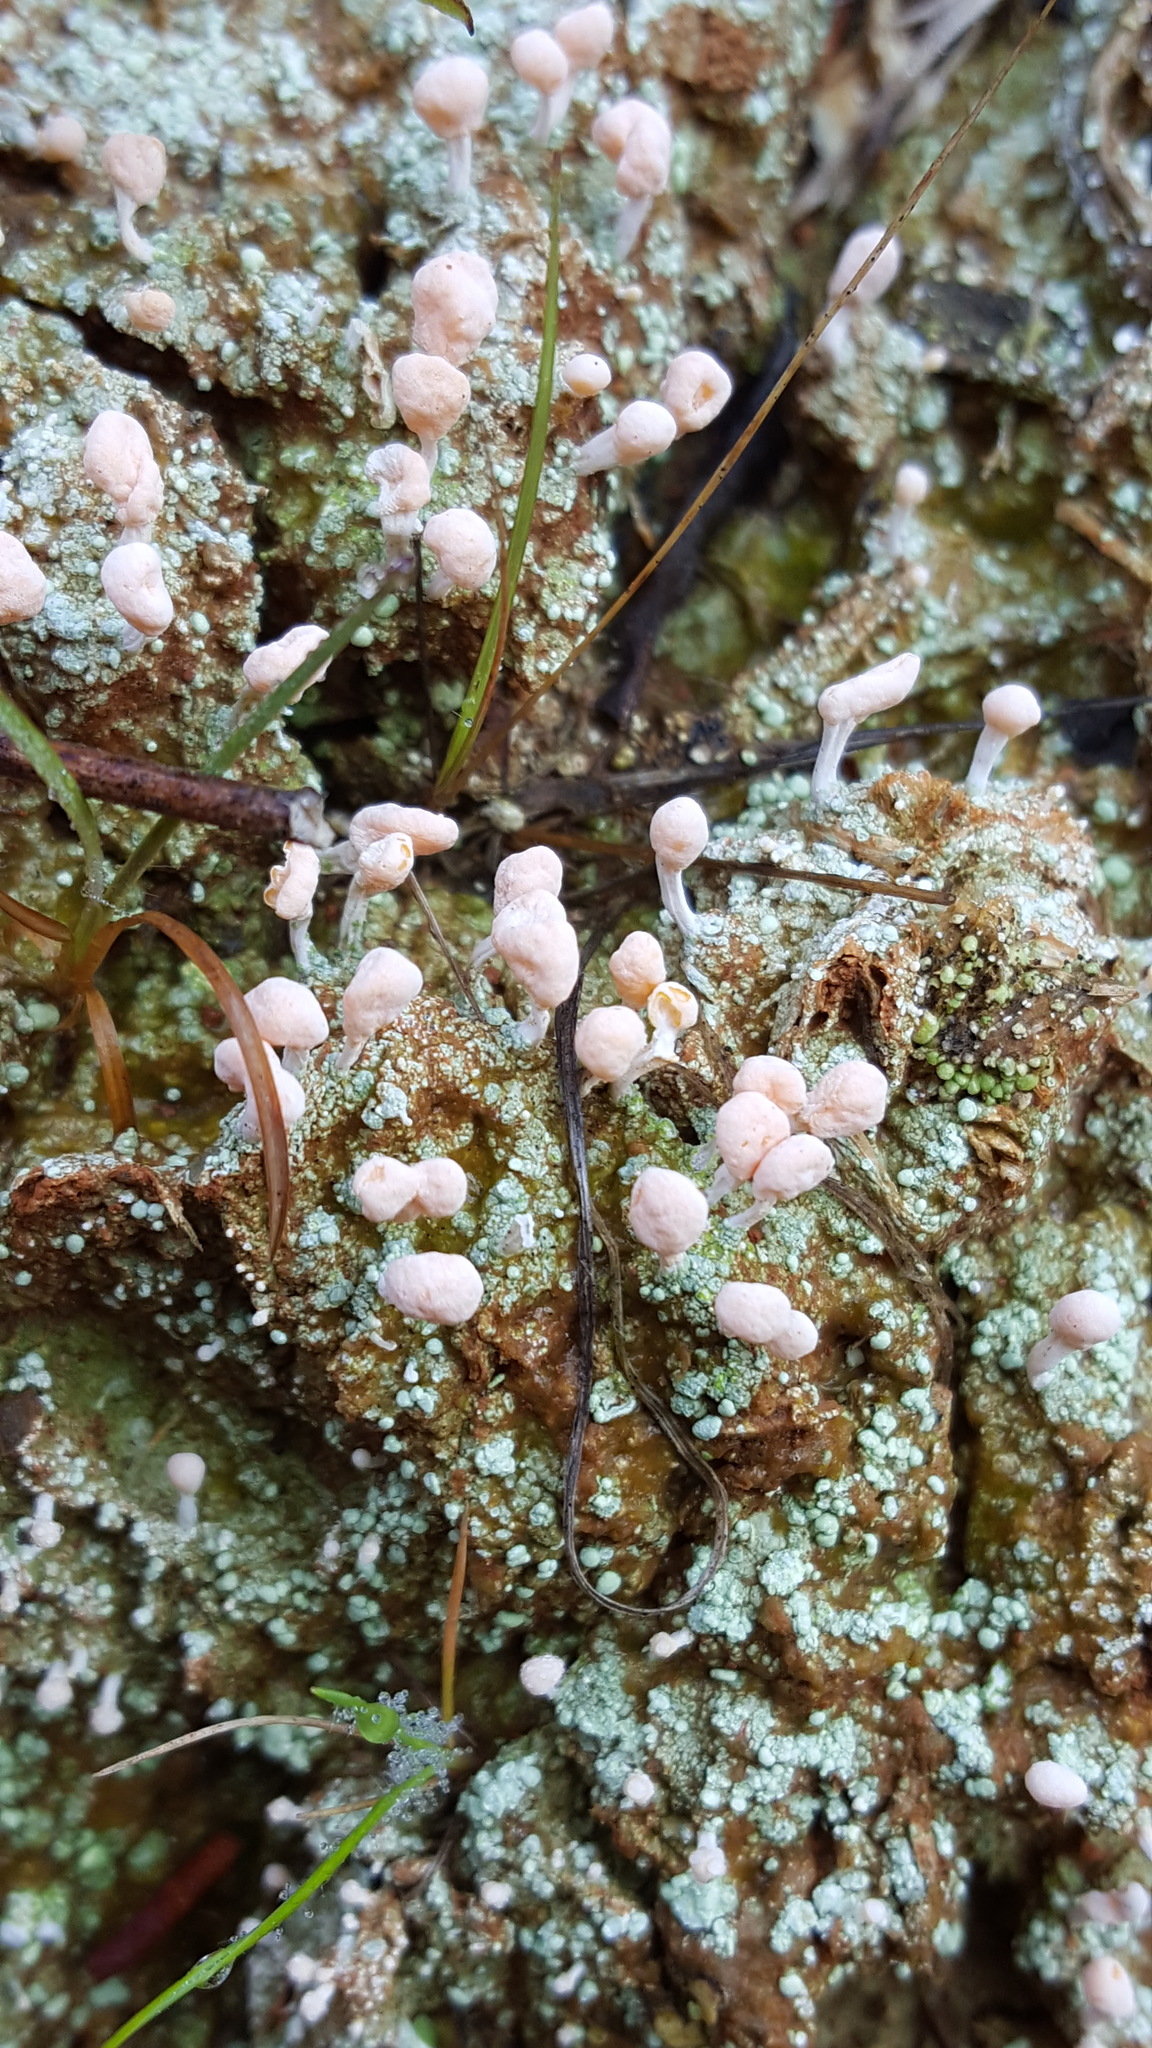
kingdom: Fungi
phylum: Ascomycota
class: Lecanoromycetes
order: Pertusariales
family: Icmadophilaceae
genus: Dibaeis
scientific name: Dibaeis baeomyces
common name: Pink earth lichen
